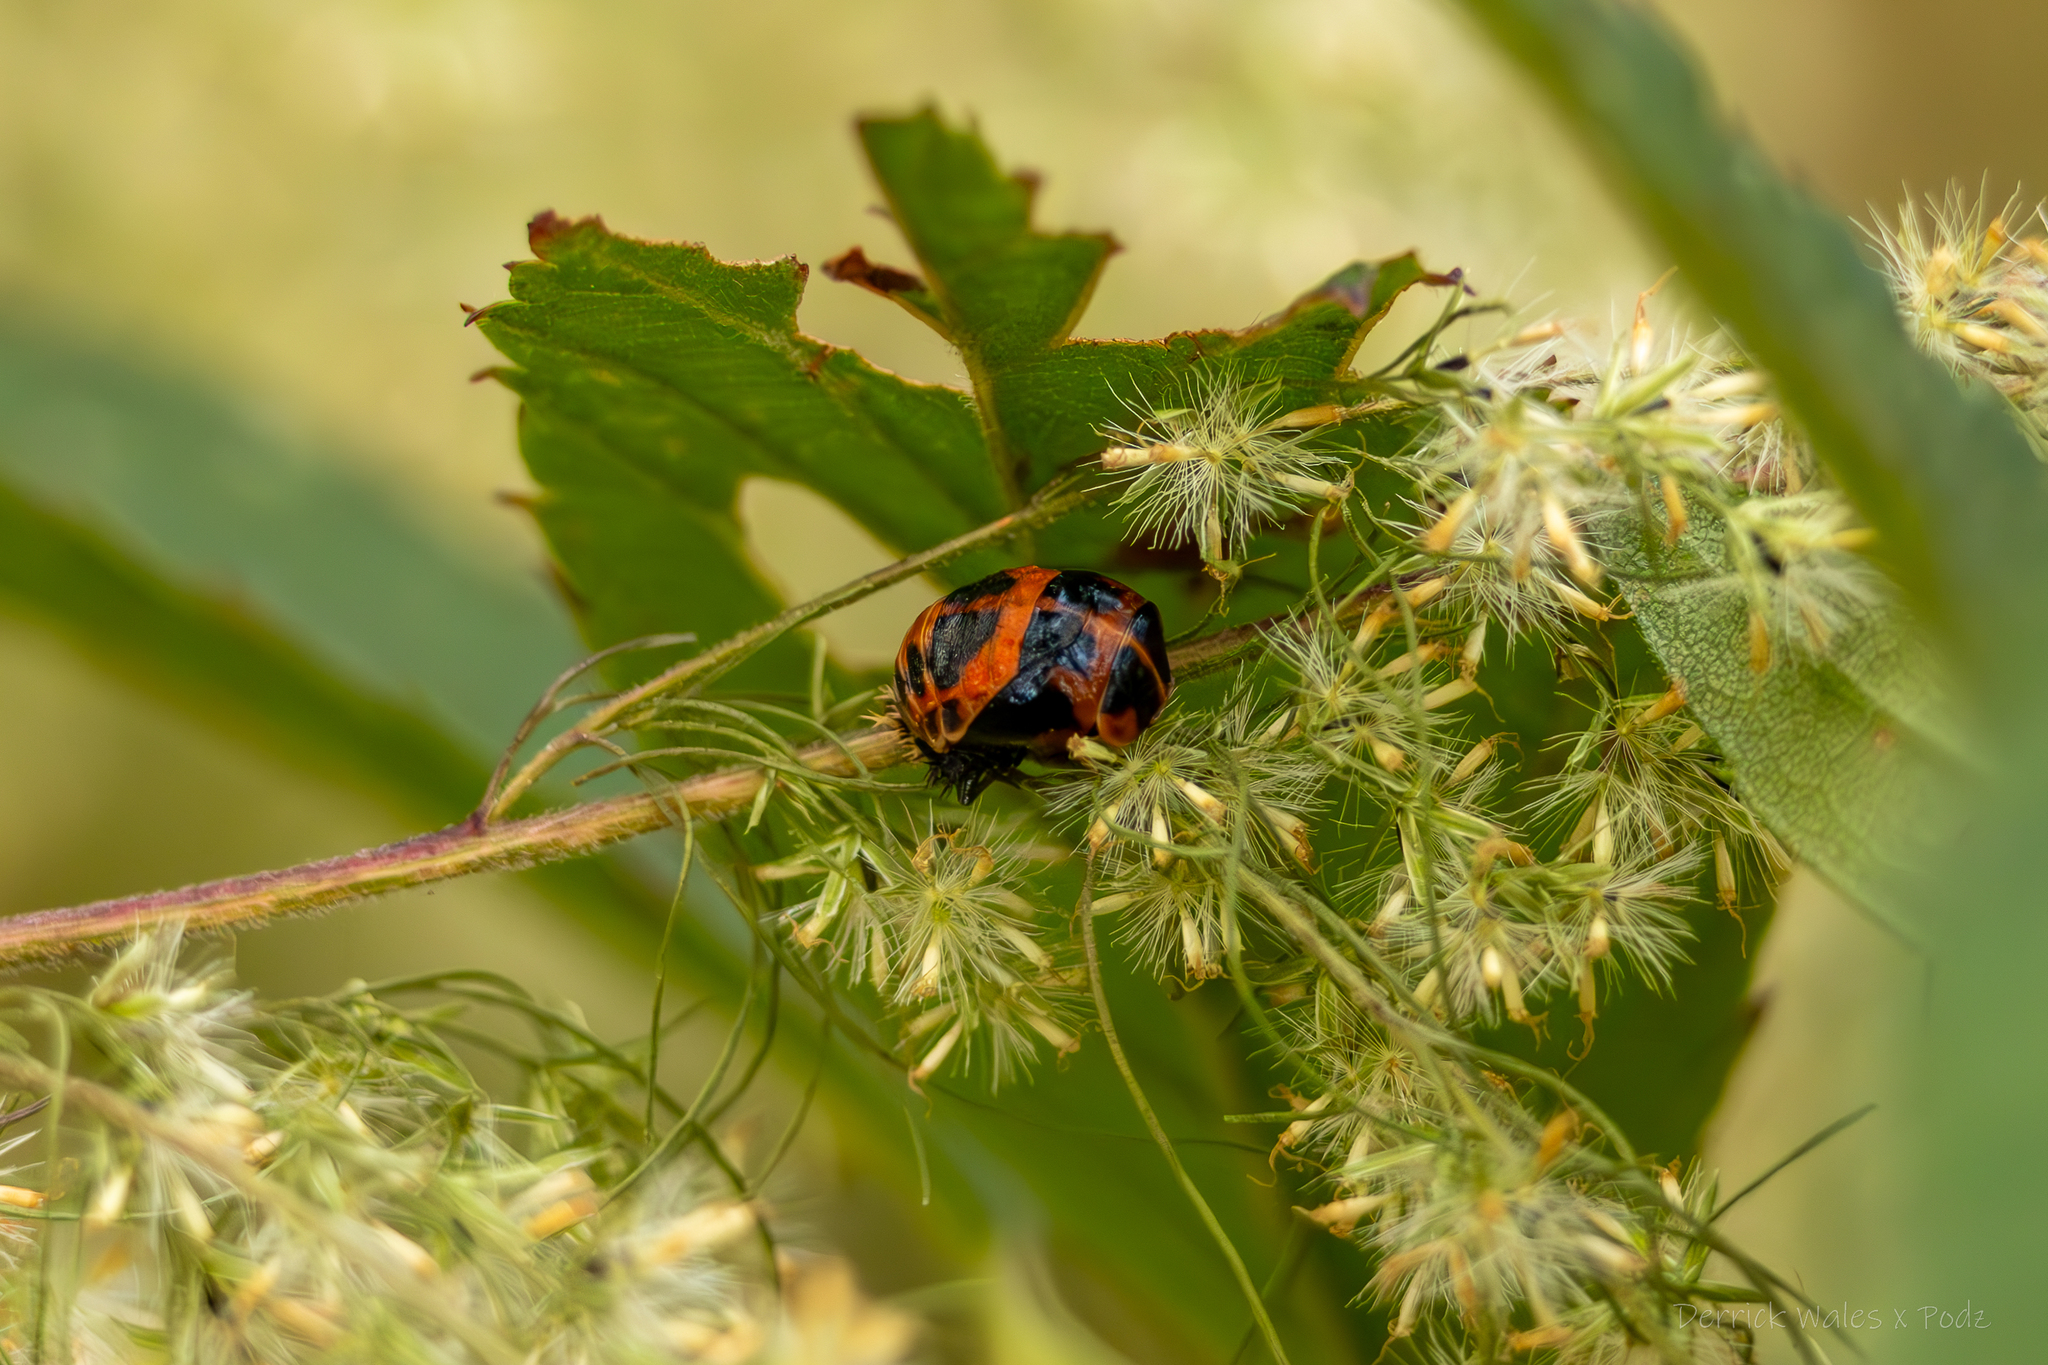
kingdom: Animalia
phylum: Arthropoda
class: Insecta
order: Coleoptera
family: Coccinellidae
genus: Harmonia
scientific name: Harmonia axyridis
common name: Harlequin ladybird
